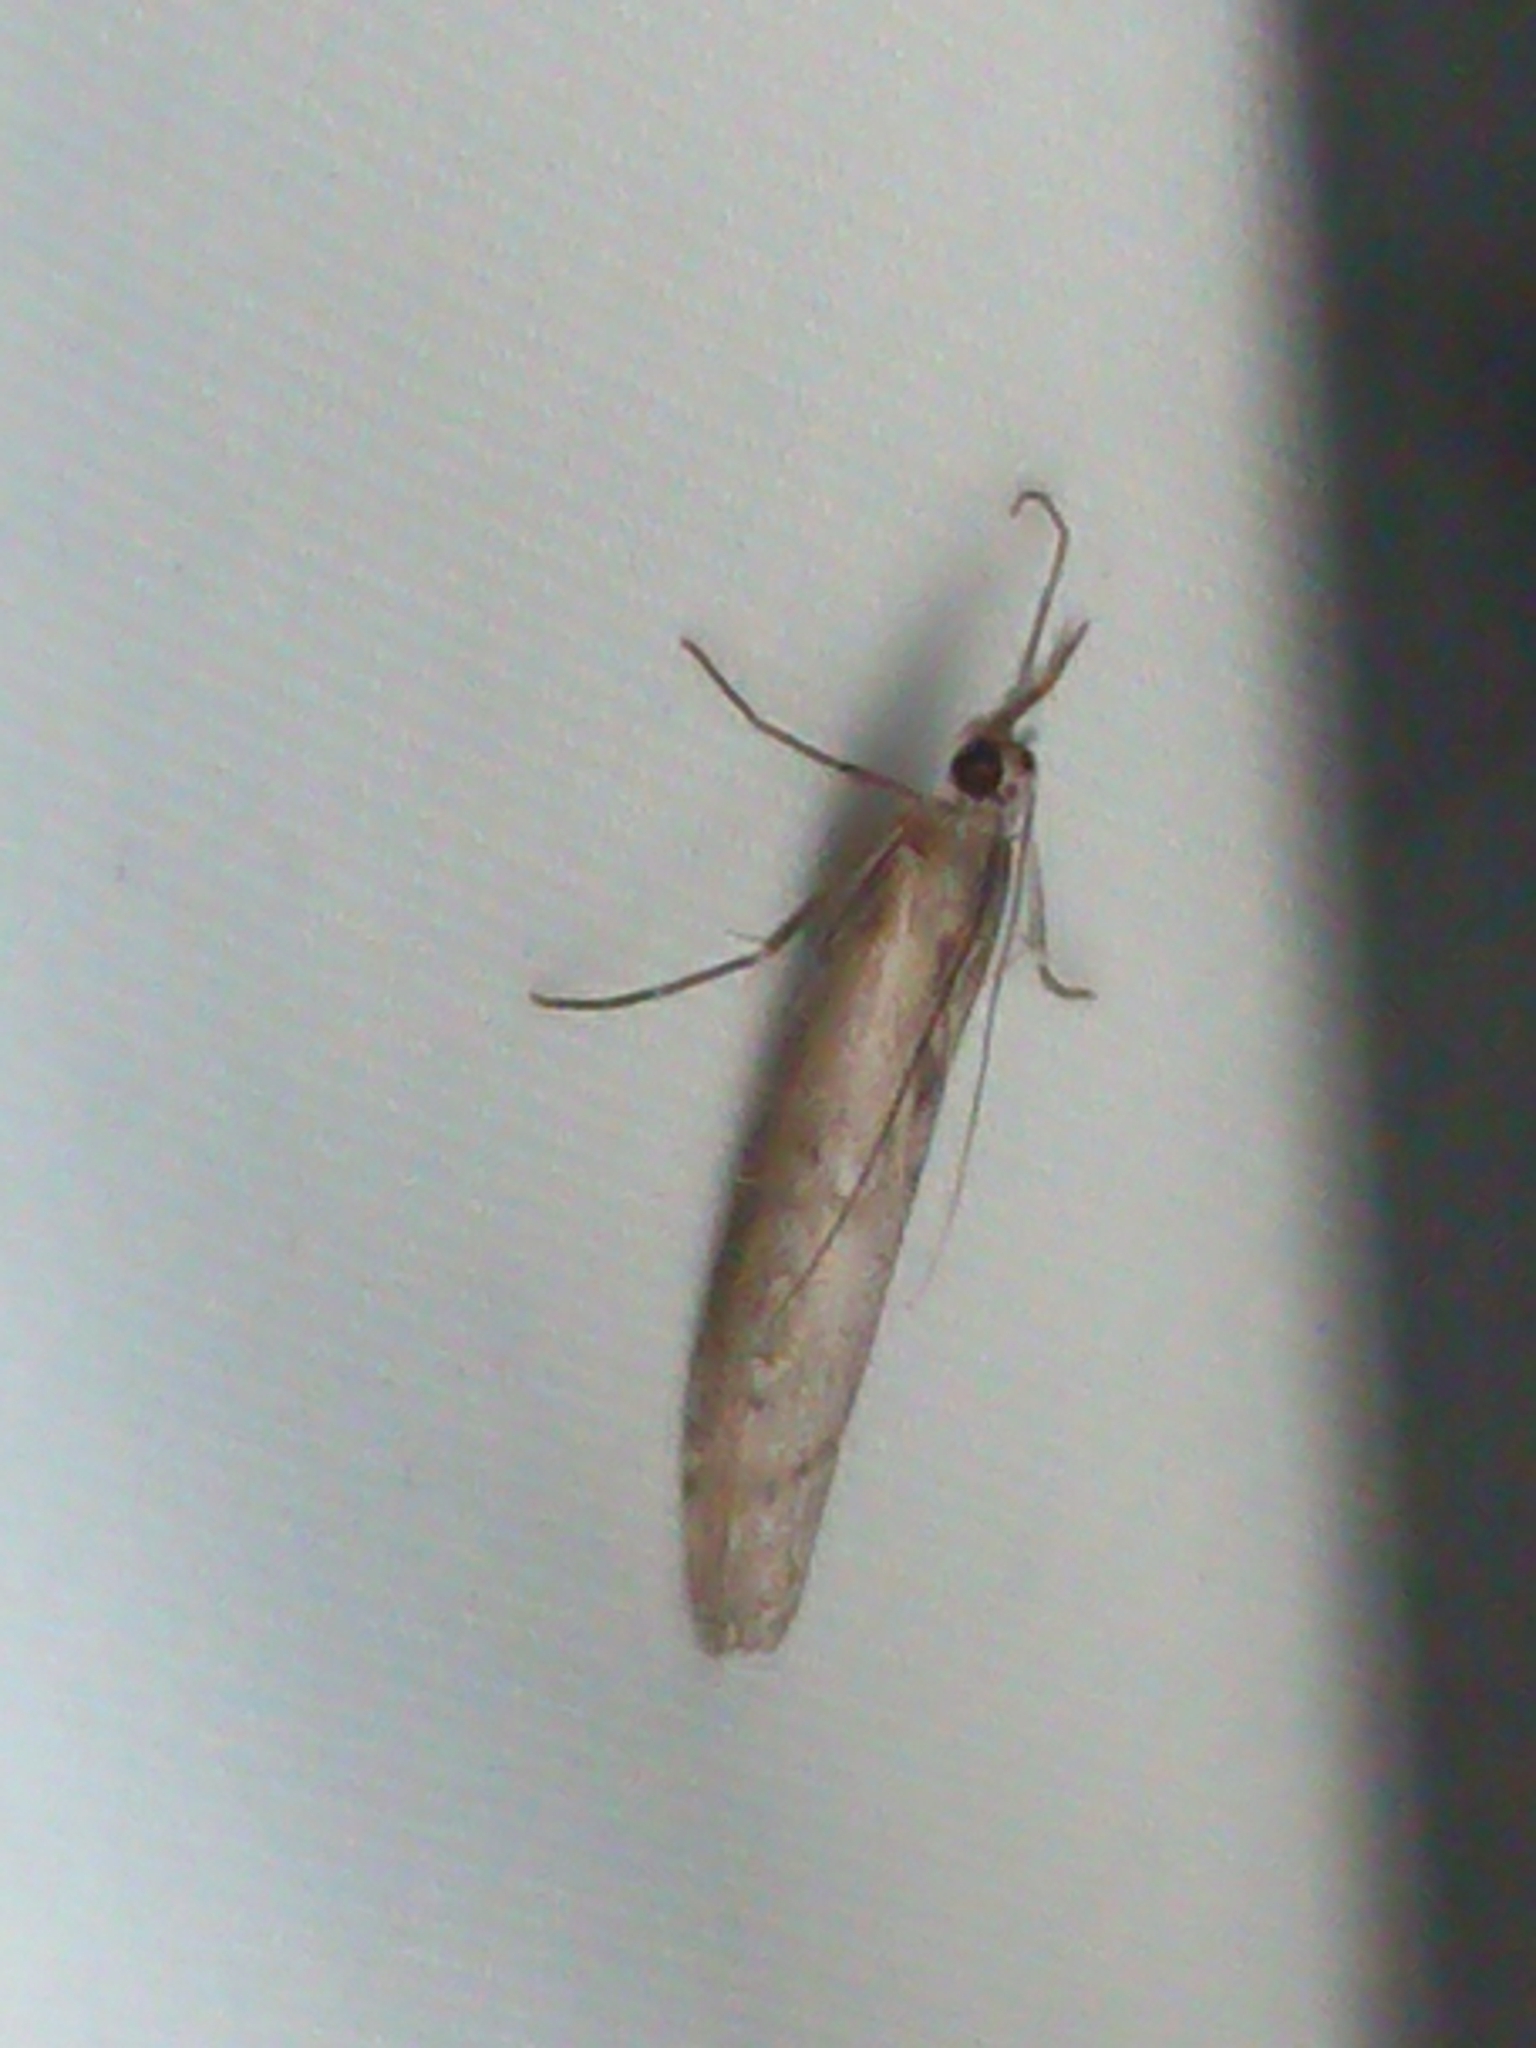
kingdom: Animalia
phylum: Arthropoda
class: Insecta
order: Lepidoptera
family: Crambidae
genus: Orocrambus
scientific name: Orocrambus cyclopicus
